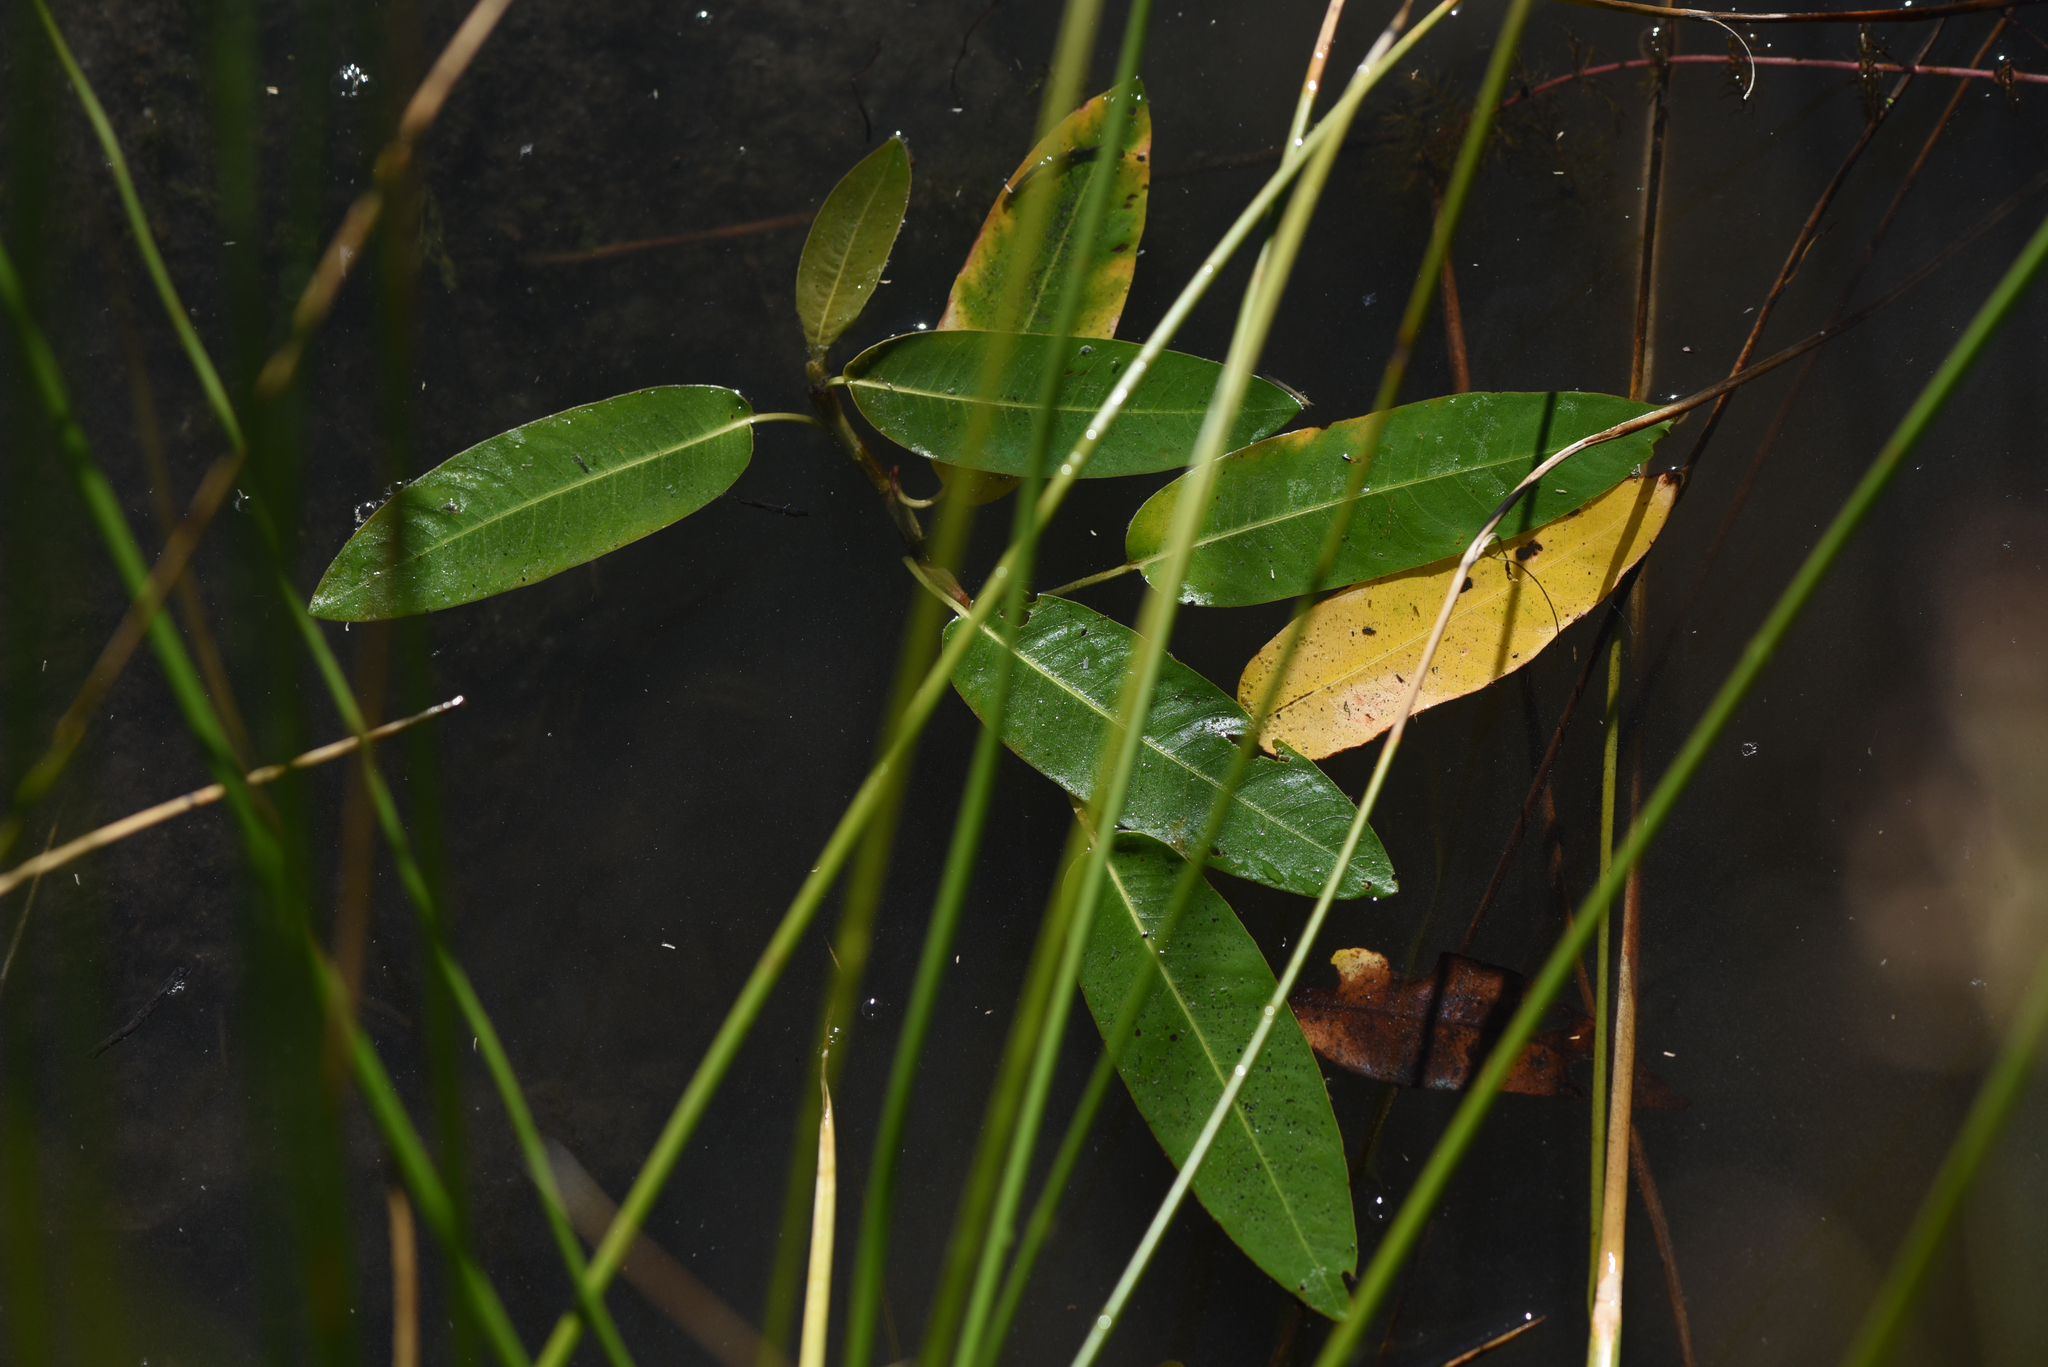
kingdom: Plantae
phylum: Tracheophyta
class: Magnoliopsida
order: Caryophyllales
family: Polygonaceae
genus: Persicaria
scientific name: Persicaria amphibia
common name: Amphibious bistort
